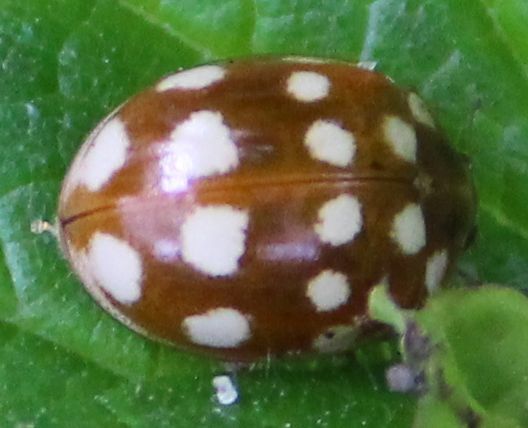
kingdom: Animalia
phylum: Arthropoda
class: Insecta
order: Coleoptera
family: Coccinellidae
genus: Calvia
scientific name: Calvia quatuordecimguttata
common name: Cream-spot ladybird
